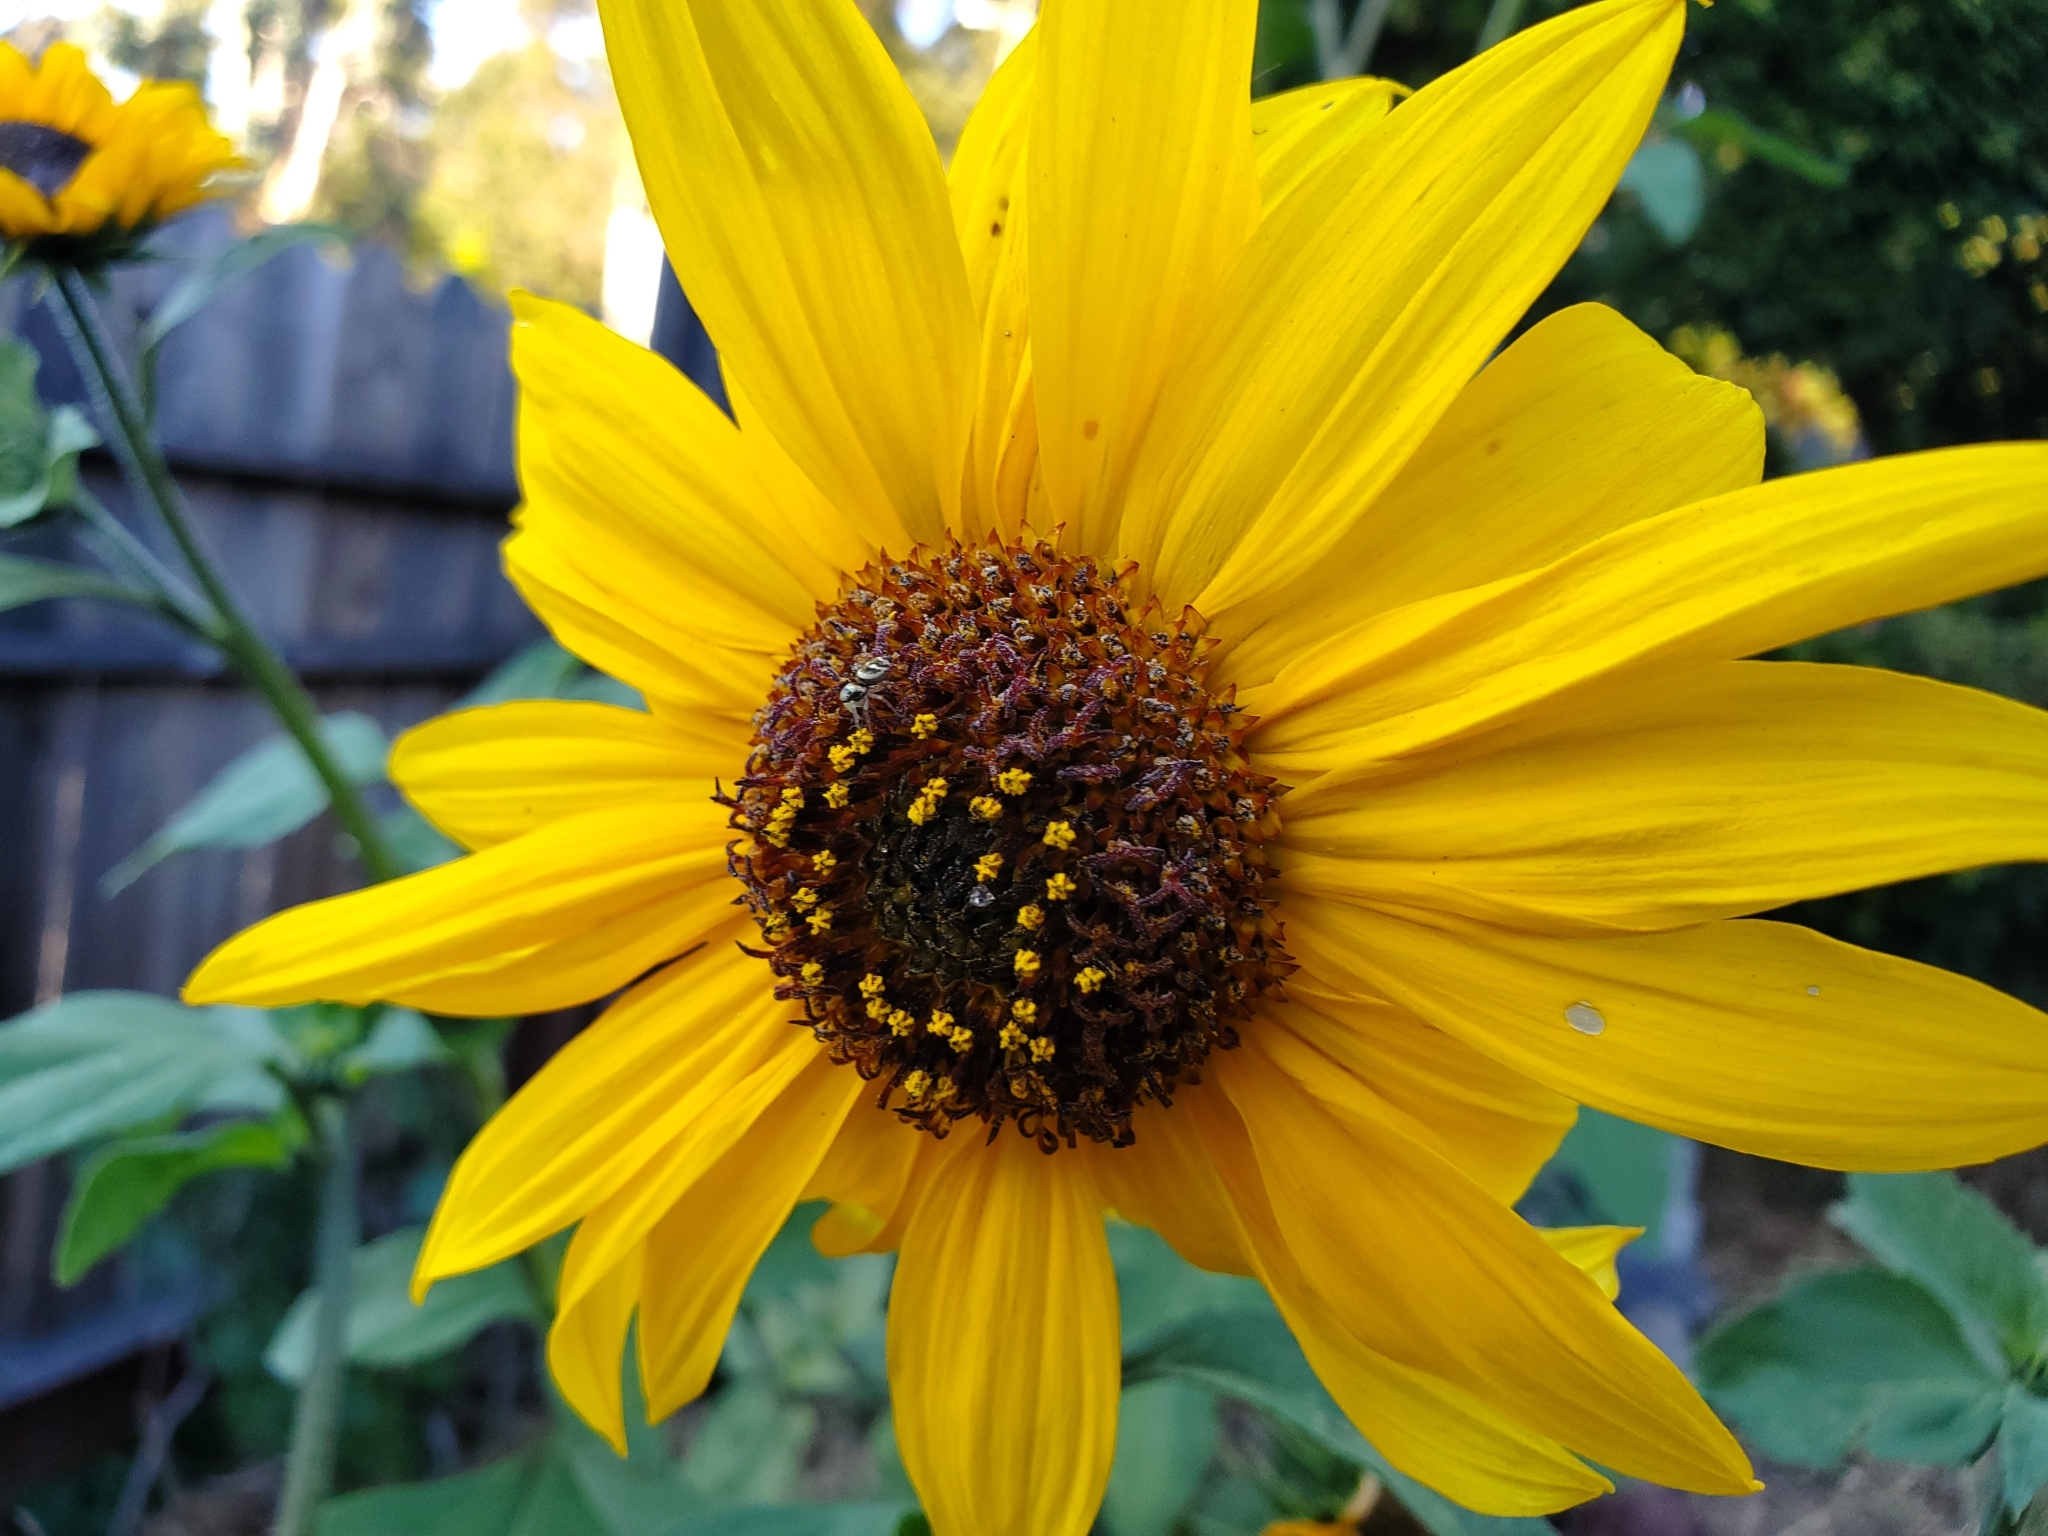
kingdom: Animalia
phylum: Arthropoda
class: Arachnida
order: Araneae
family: Salticidae
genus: Salticus
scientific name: Salticus scenicus
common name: Zebra jumper
